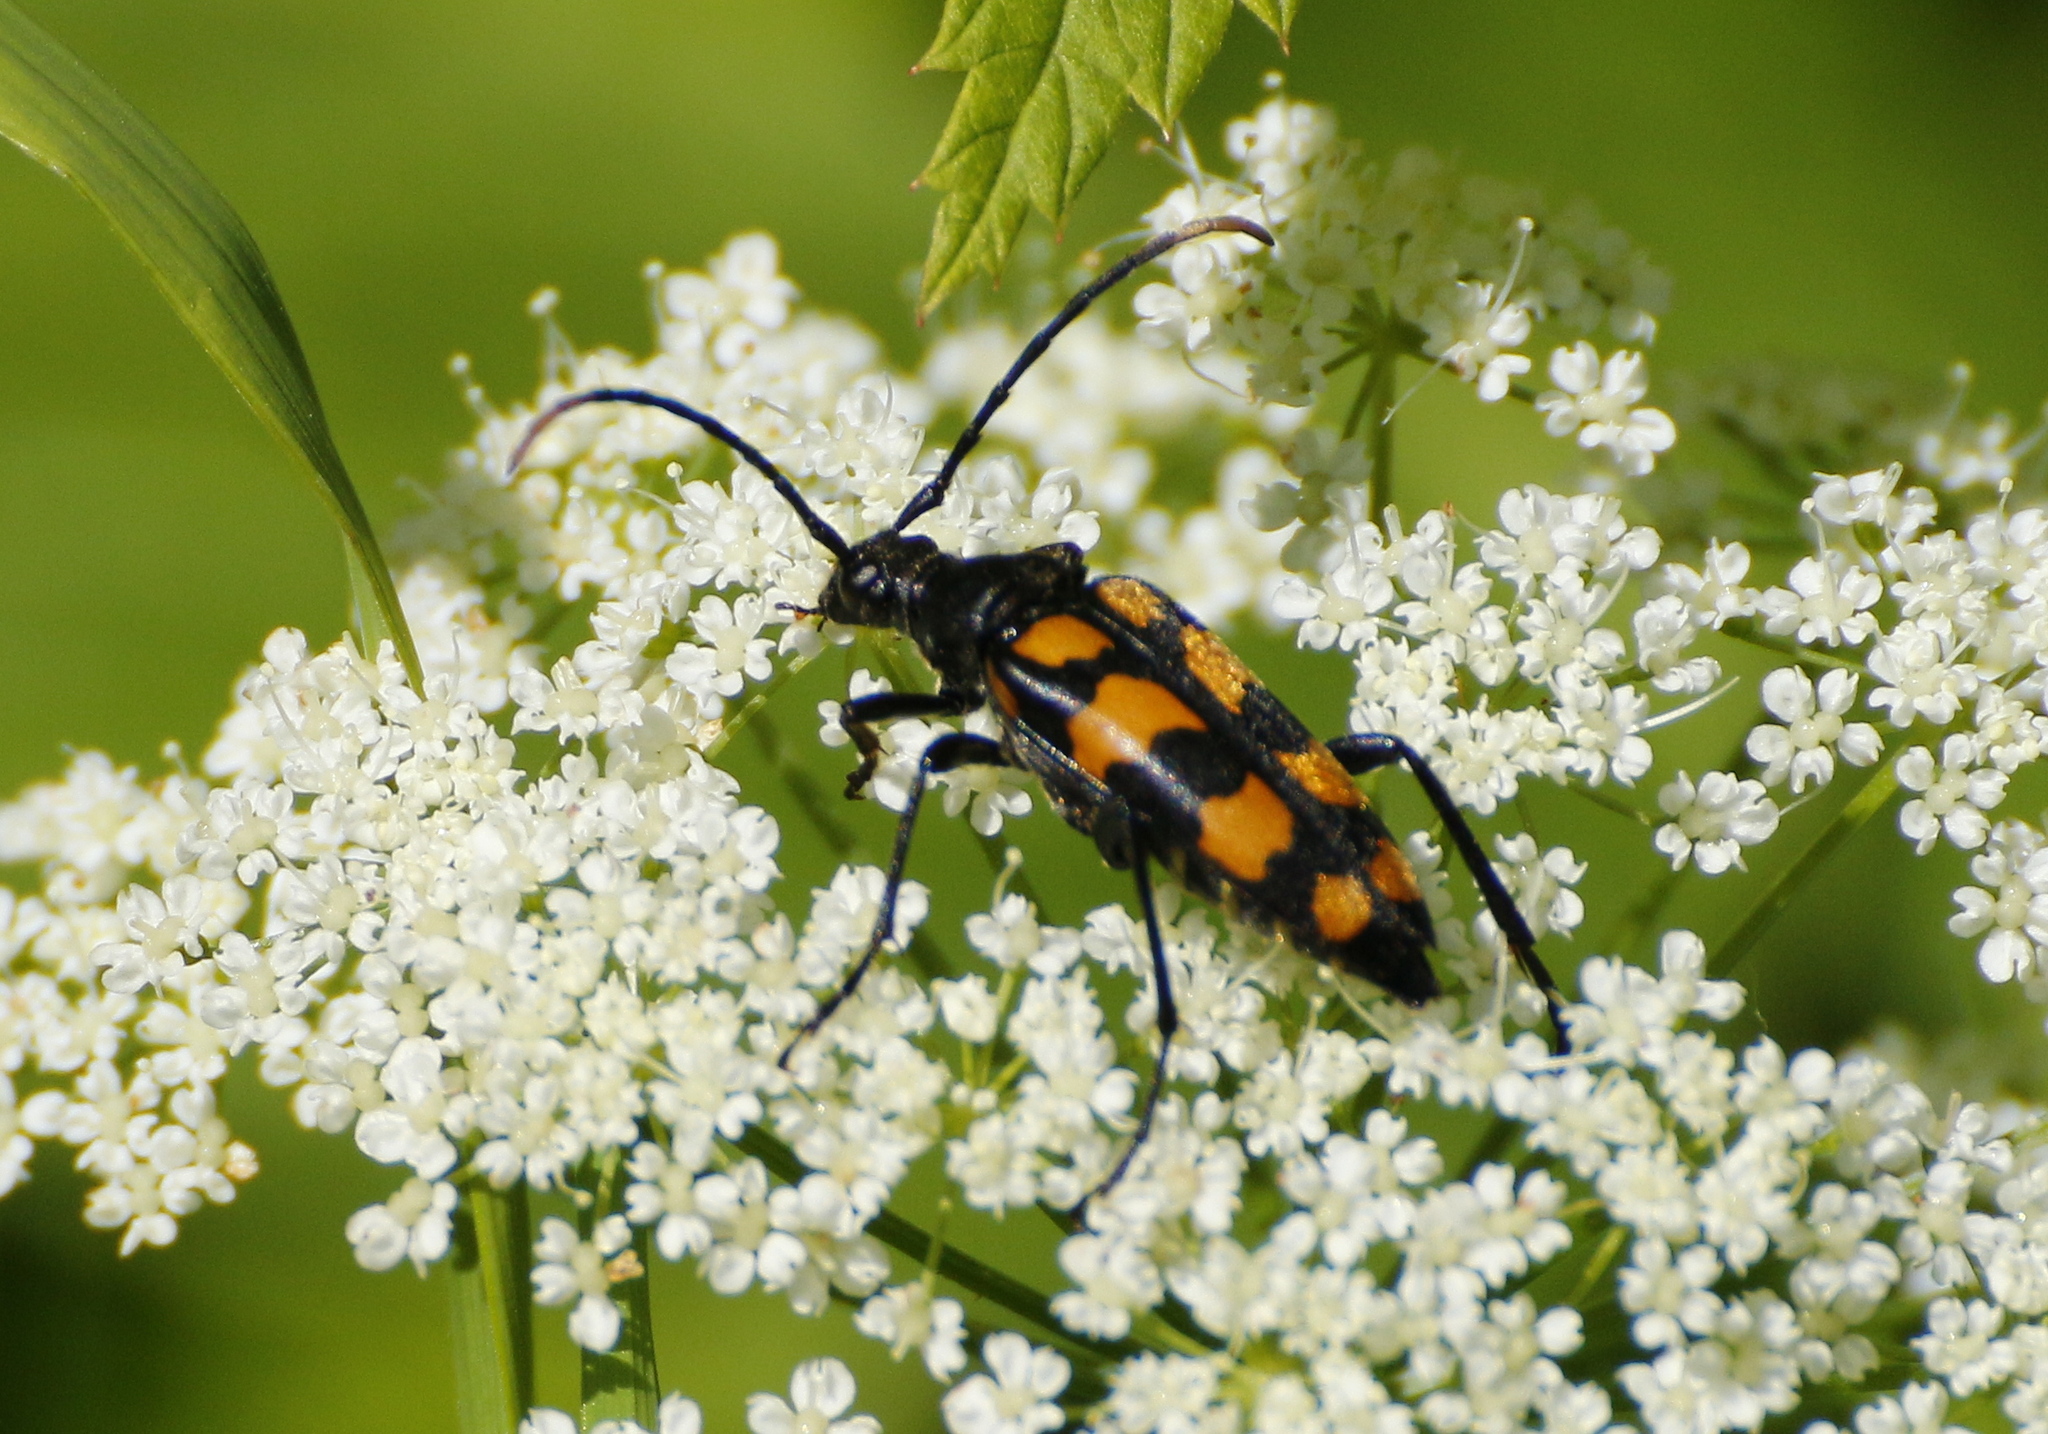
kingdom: Animalia
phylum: Arthropoda
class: Insecta
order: Coleoptera
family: Cerambycidae
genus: Leptura
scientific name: Leptura quadrifasciata
